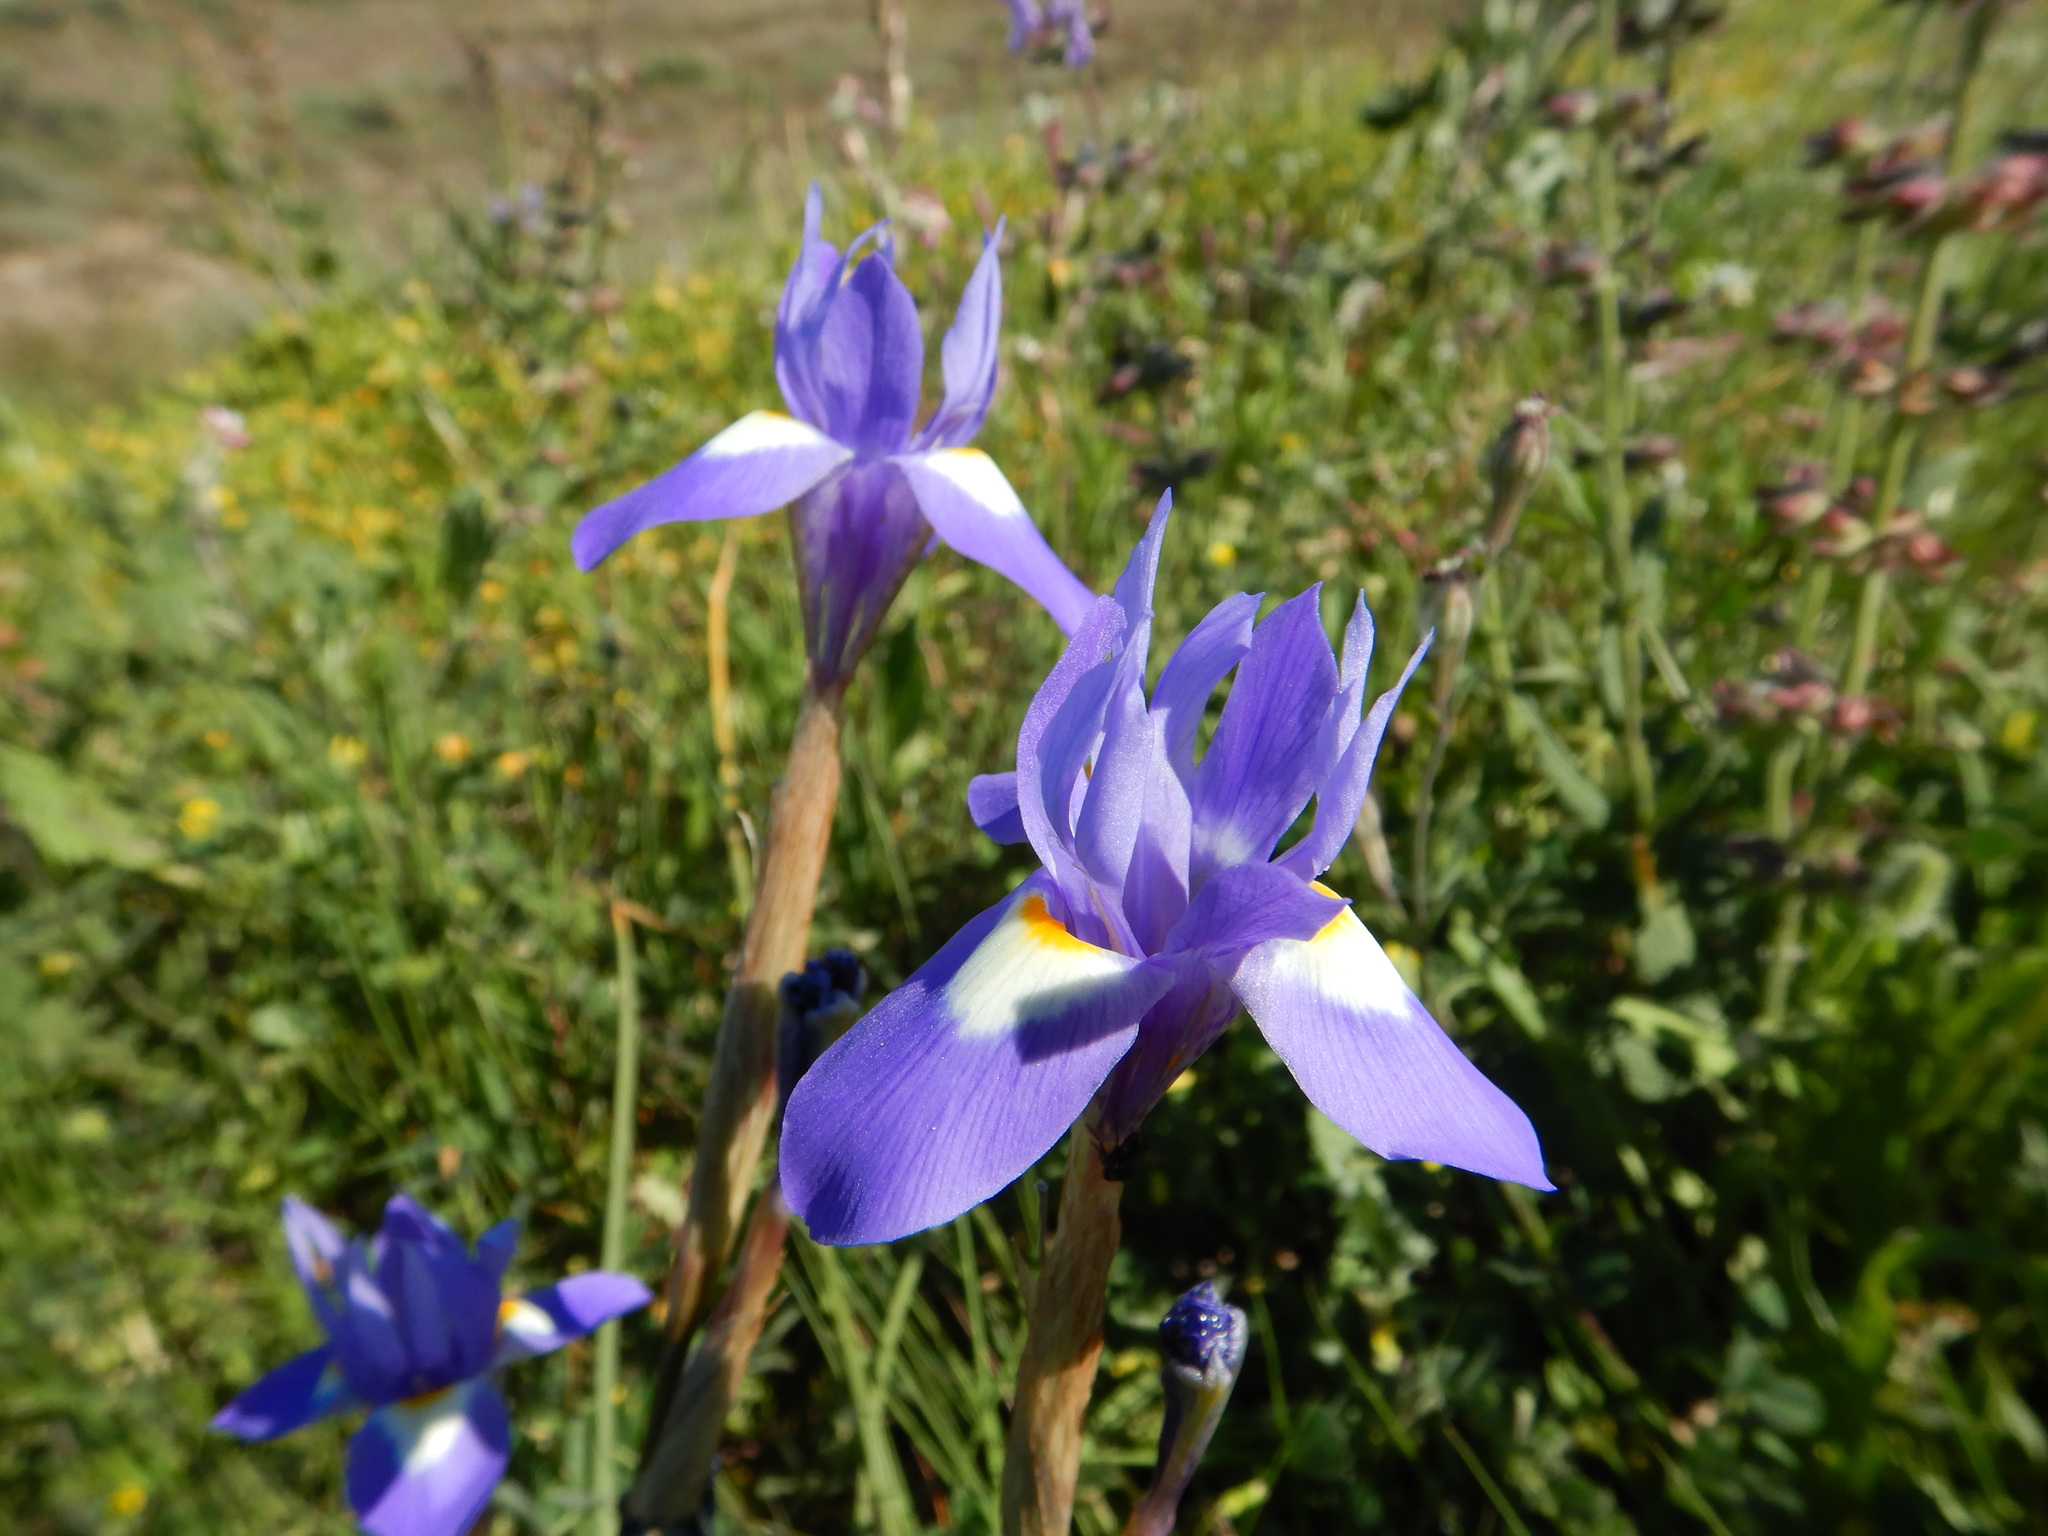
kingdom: Plantae
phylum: Tracheophyta
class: Liliopsida
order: Asparagales
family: Iridaceae
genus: Moraea
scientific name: Moraea sisyrinchium
